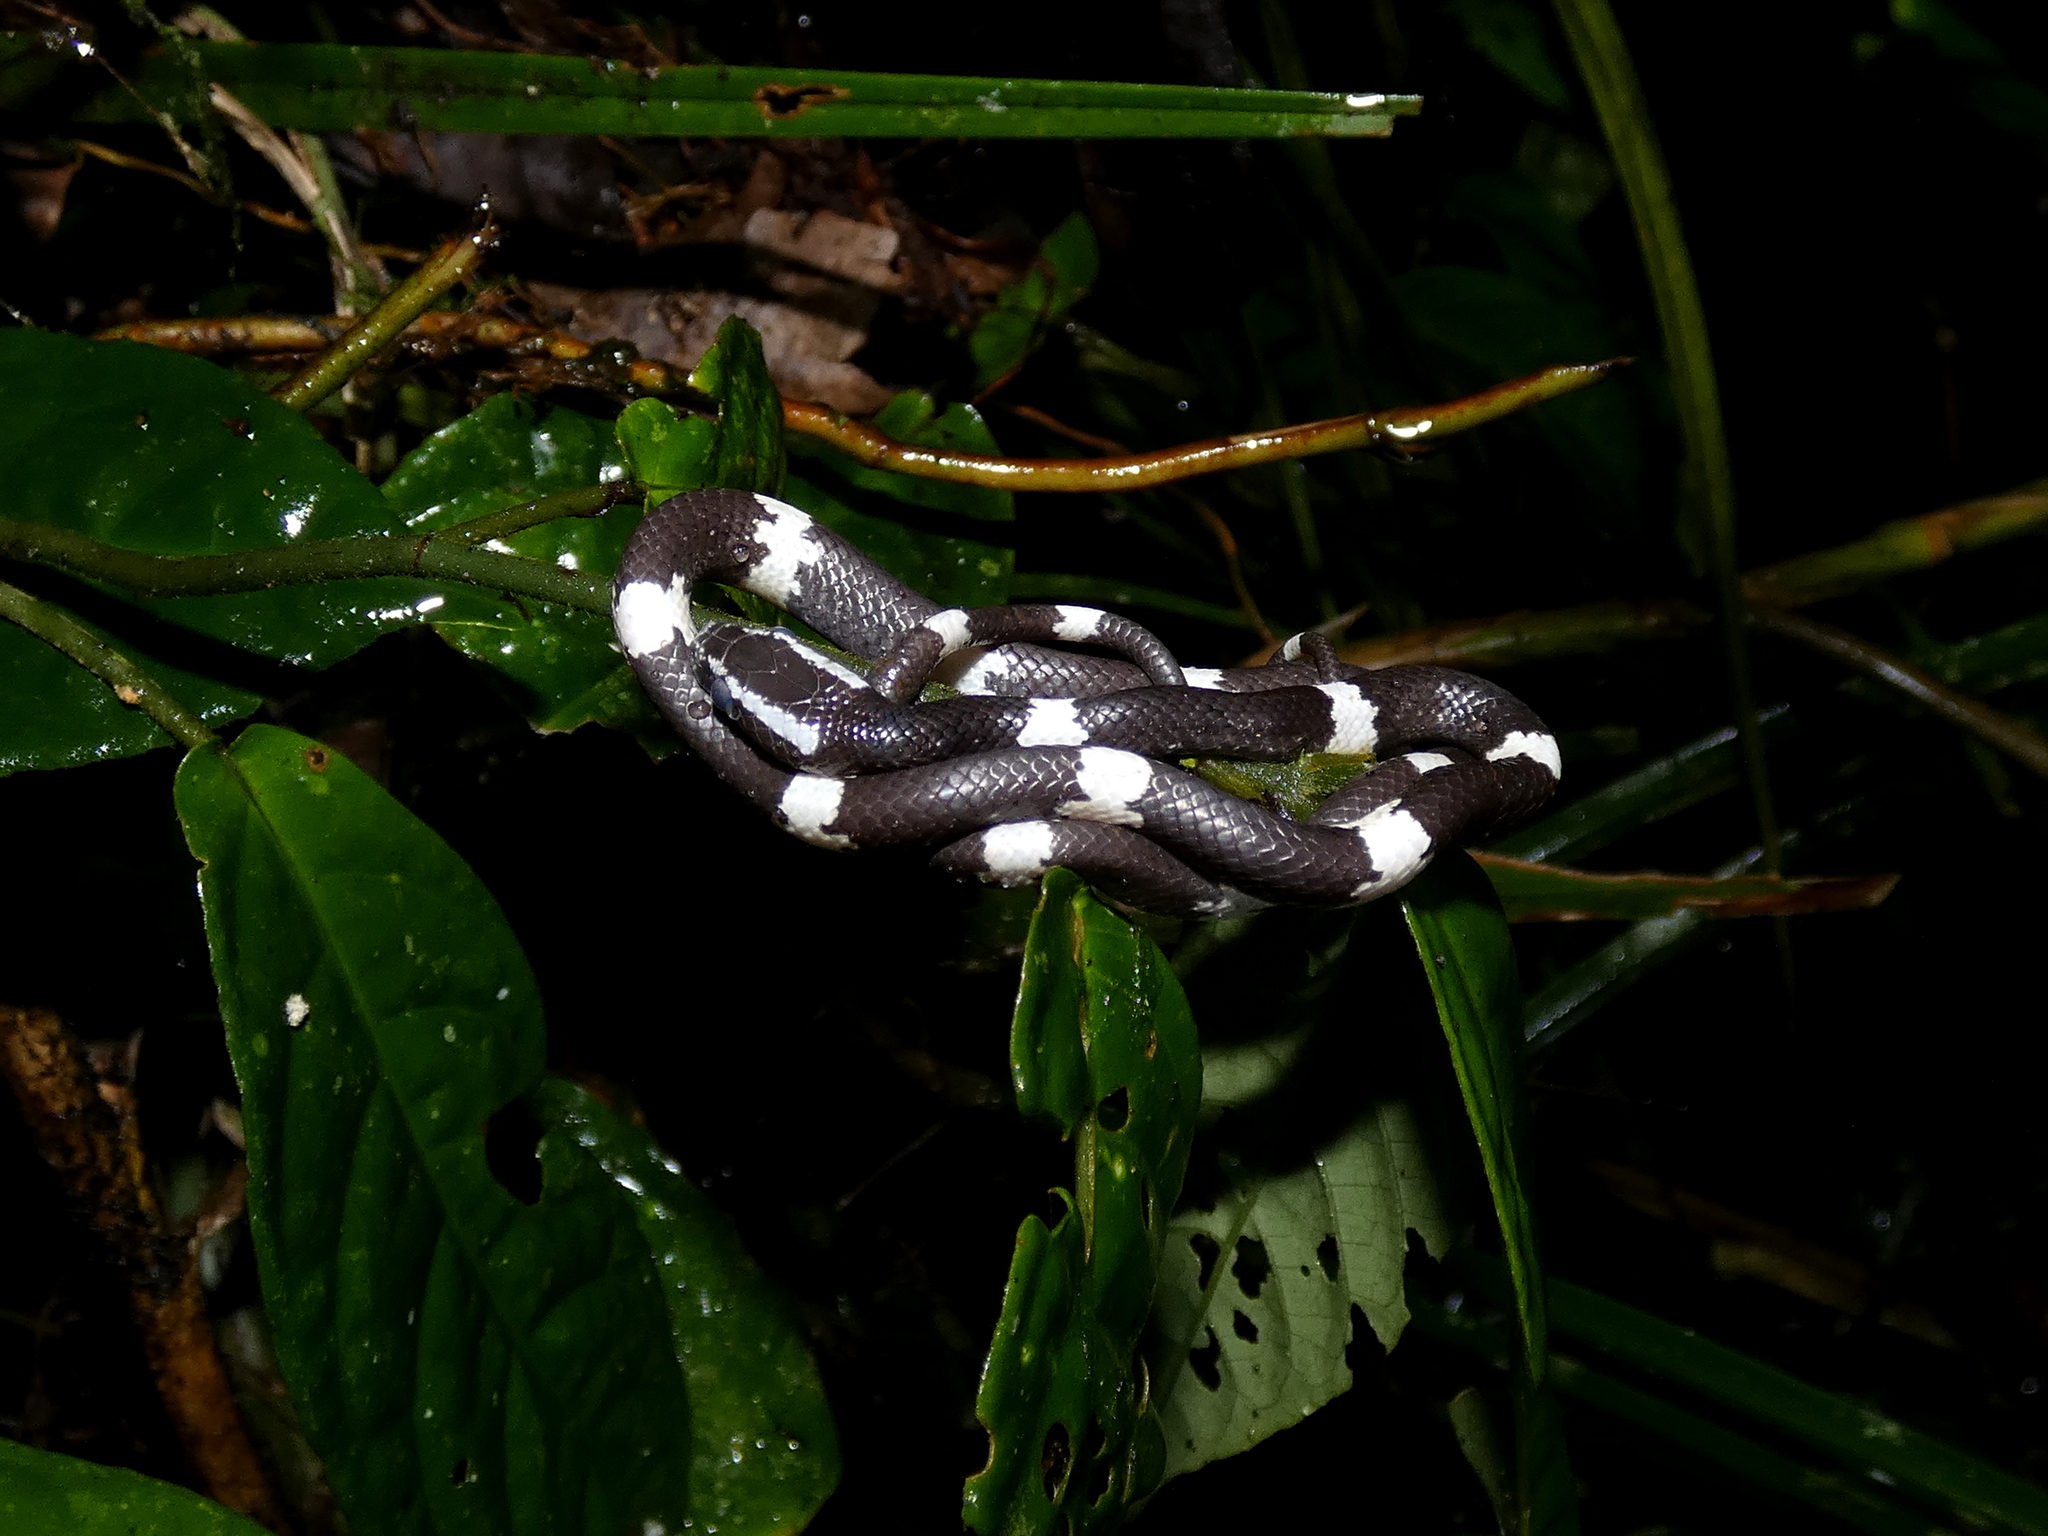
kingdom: Animalia
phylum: Chordata
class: Squamata
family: Colubridae
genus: Lycodon
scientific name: Lycodon effraenis
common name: Brown wolf snake
